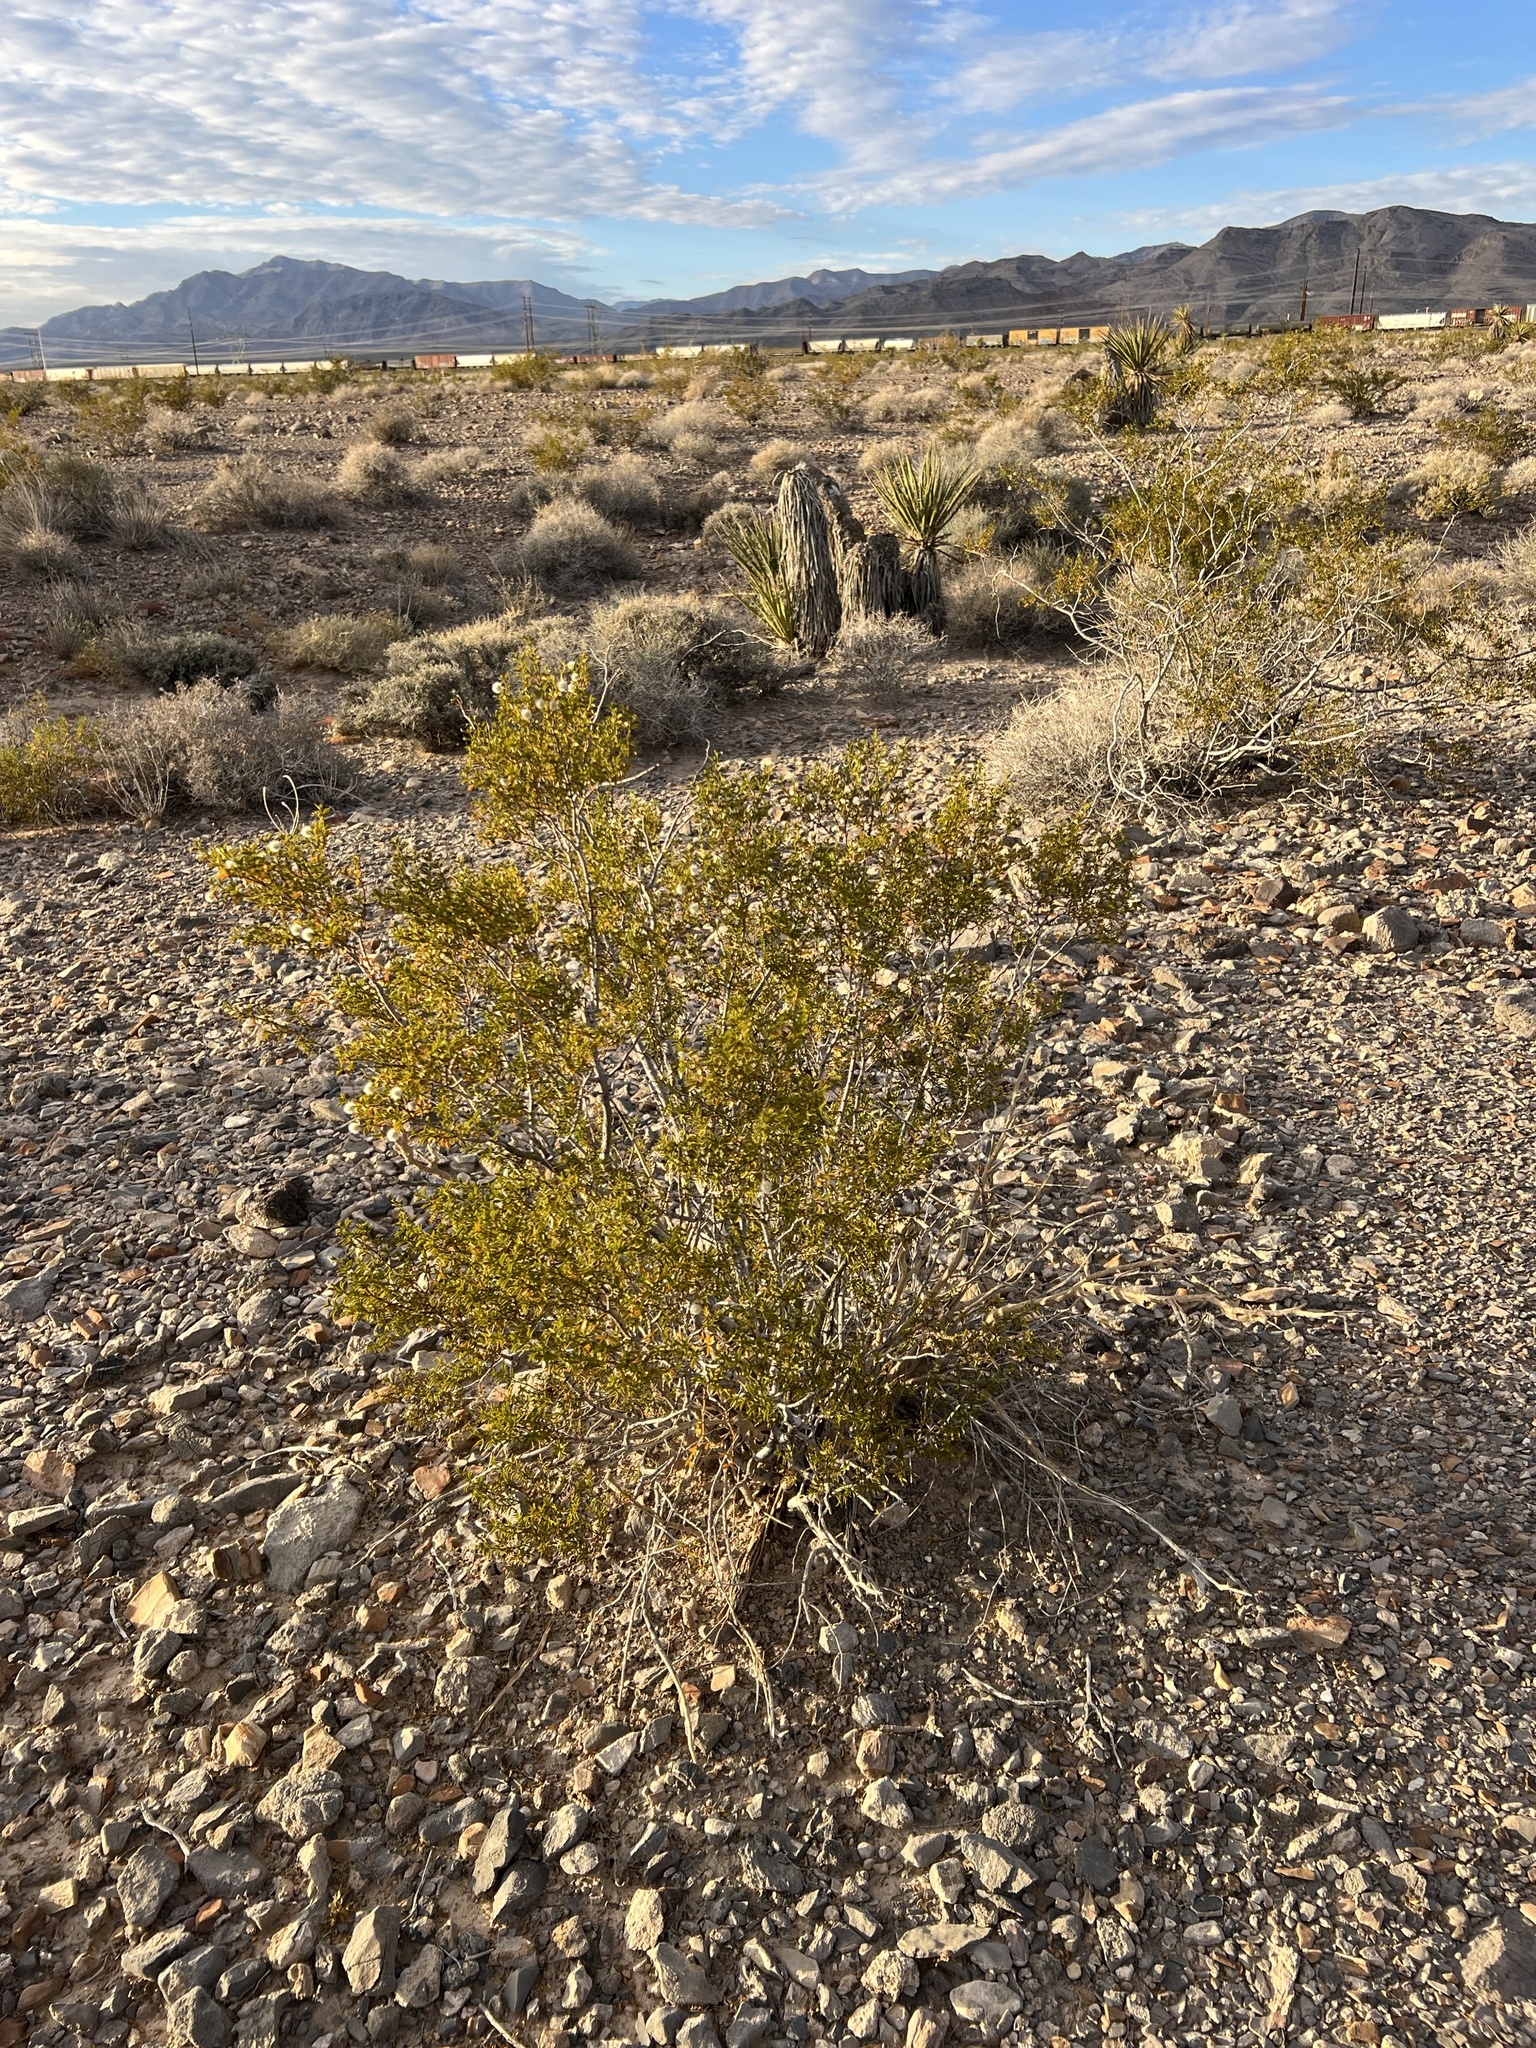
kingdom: Plantae
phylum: Tracheophyta
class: Magnoliopsida
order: Zygophyllales
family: Zygophyllaceae
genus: Larrea
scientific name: Larrea tridentata
